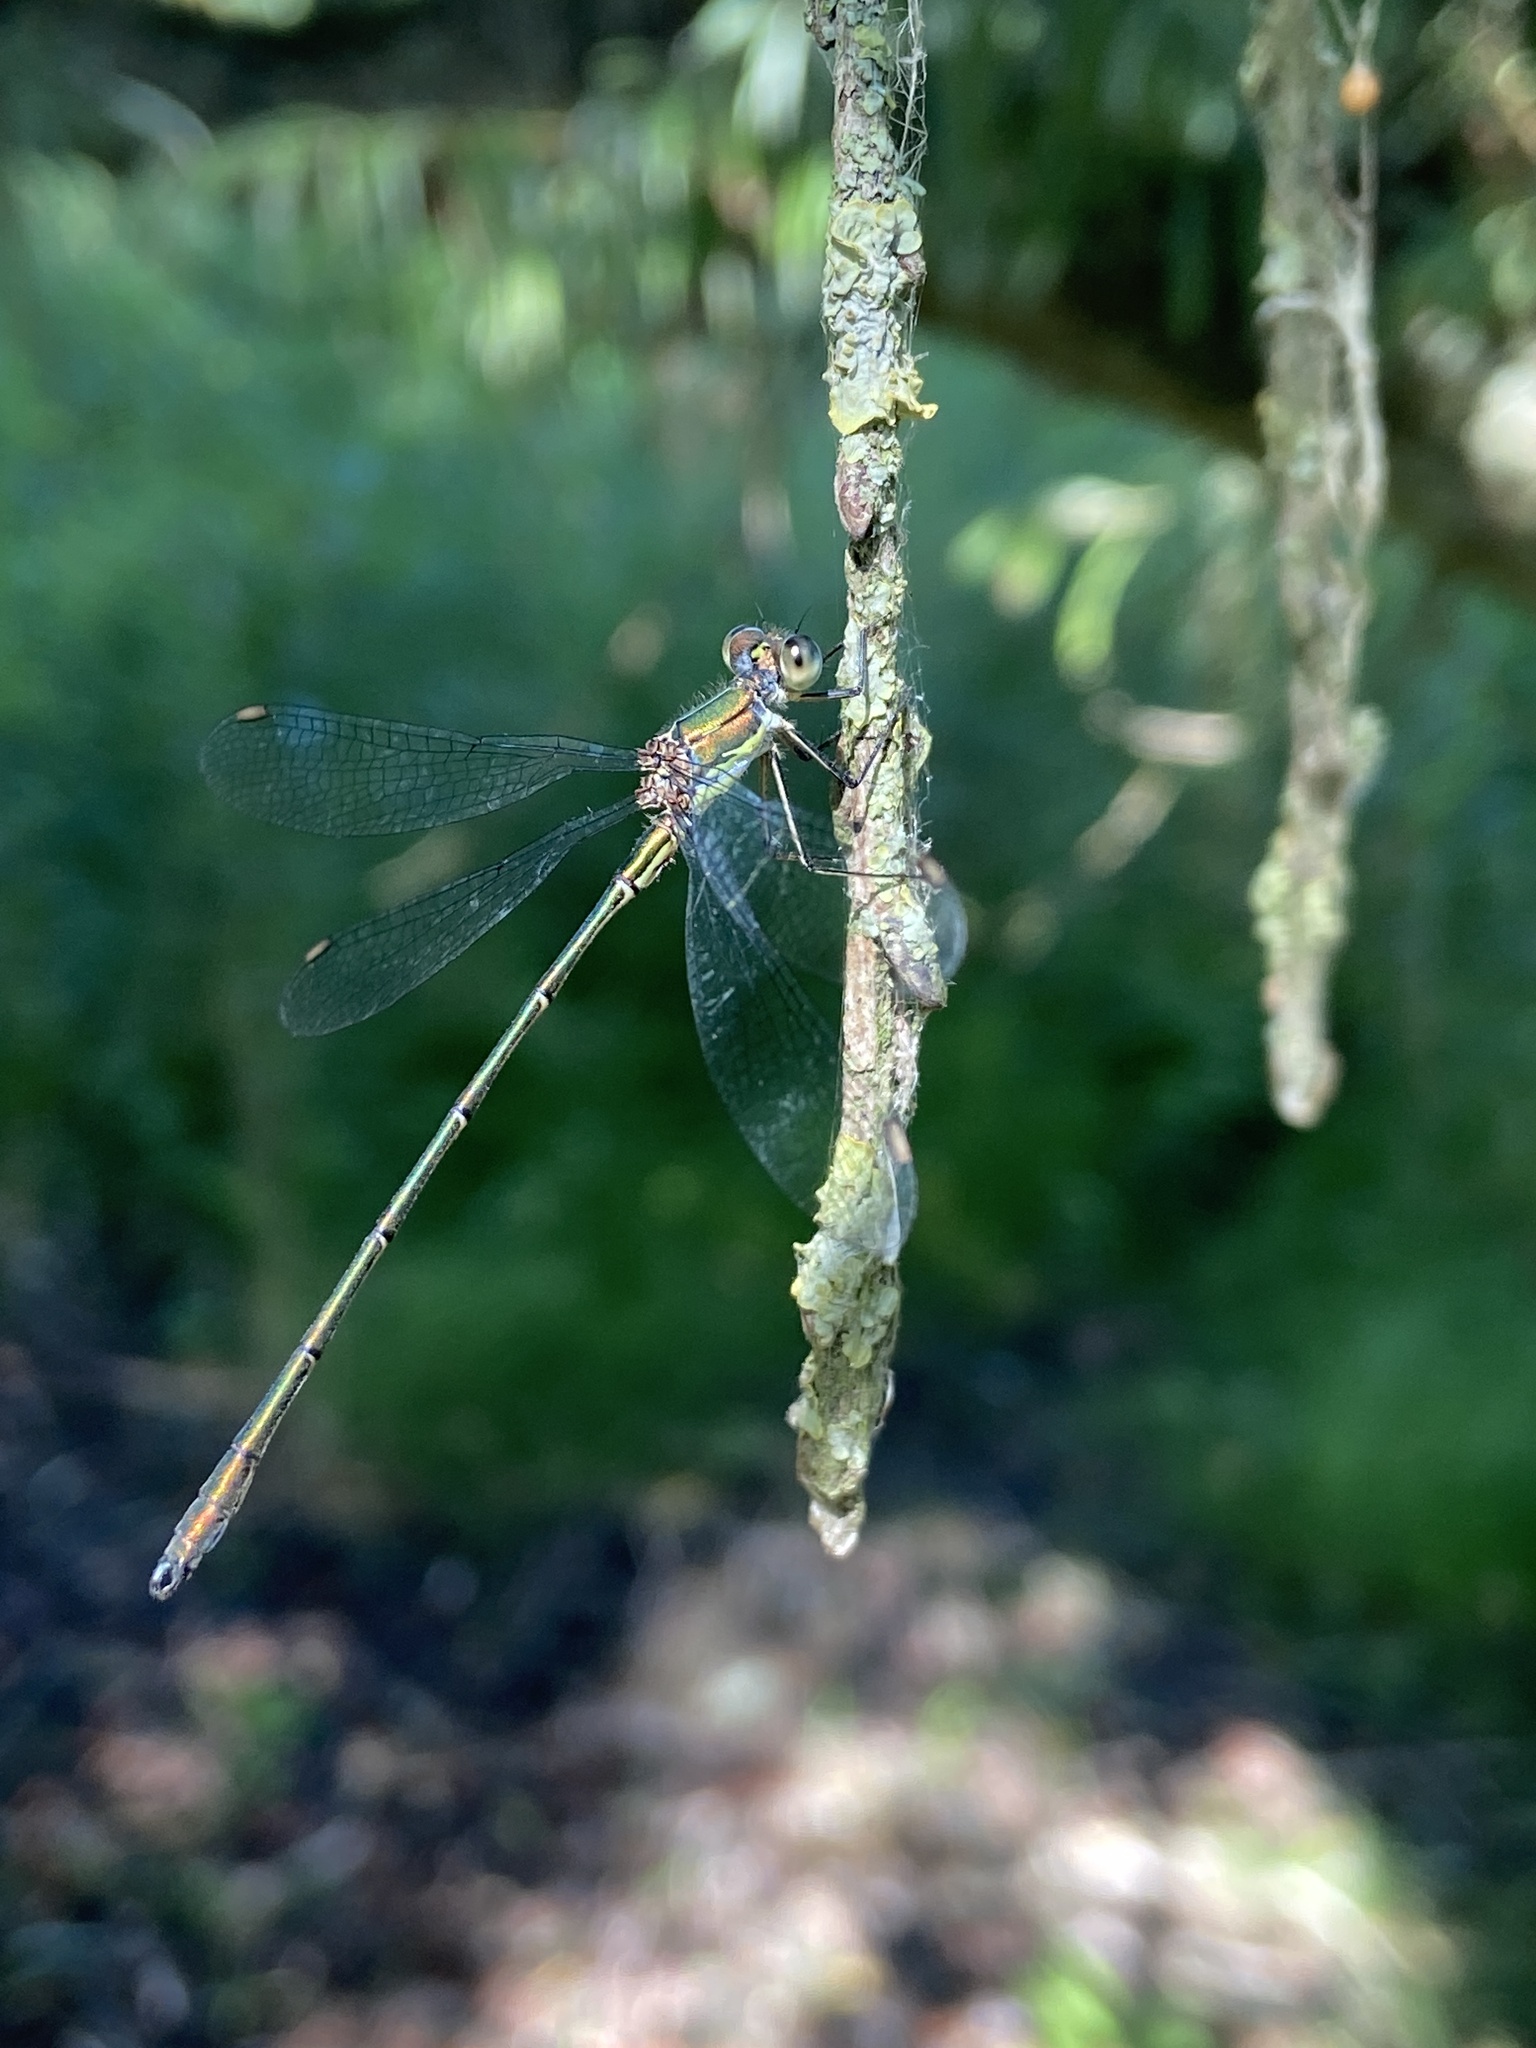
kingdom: Animalia
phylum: Arthropoda
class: Insecta
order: Odonata
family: Lestidae
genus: Chalcolestes
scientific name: Chalcolestes viridis
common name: Green emerald damselfly
